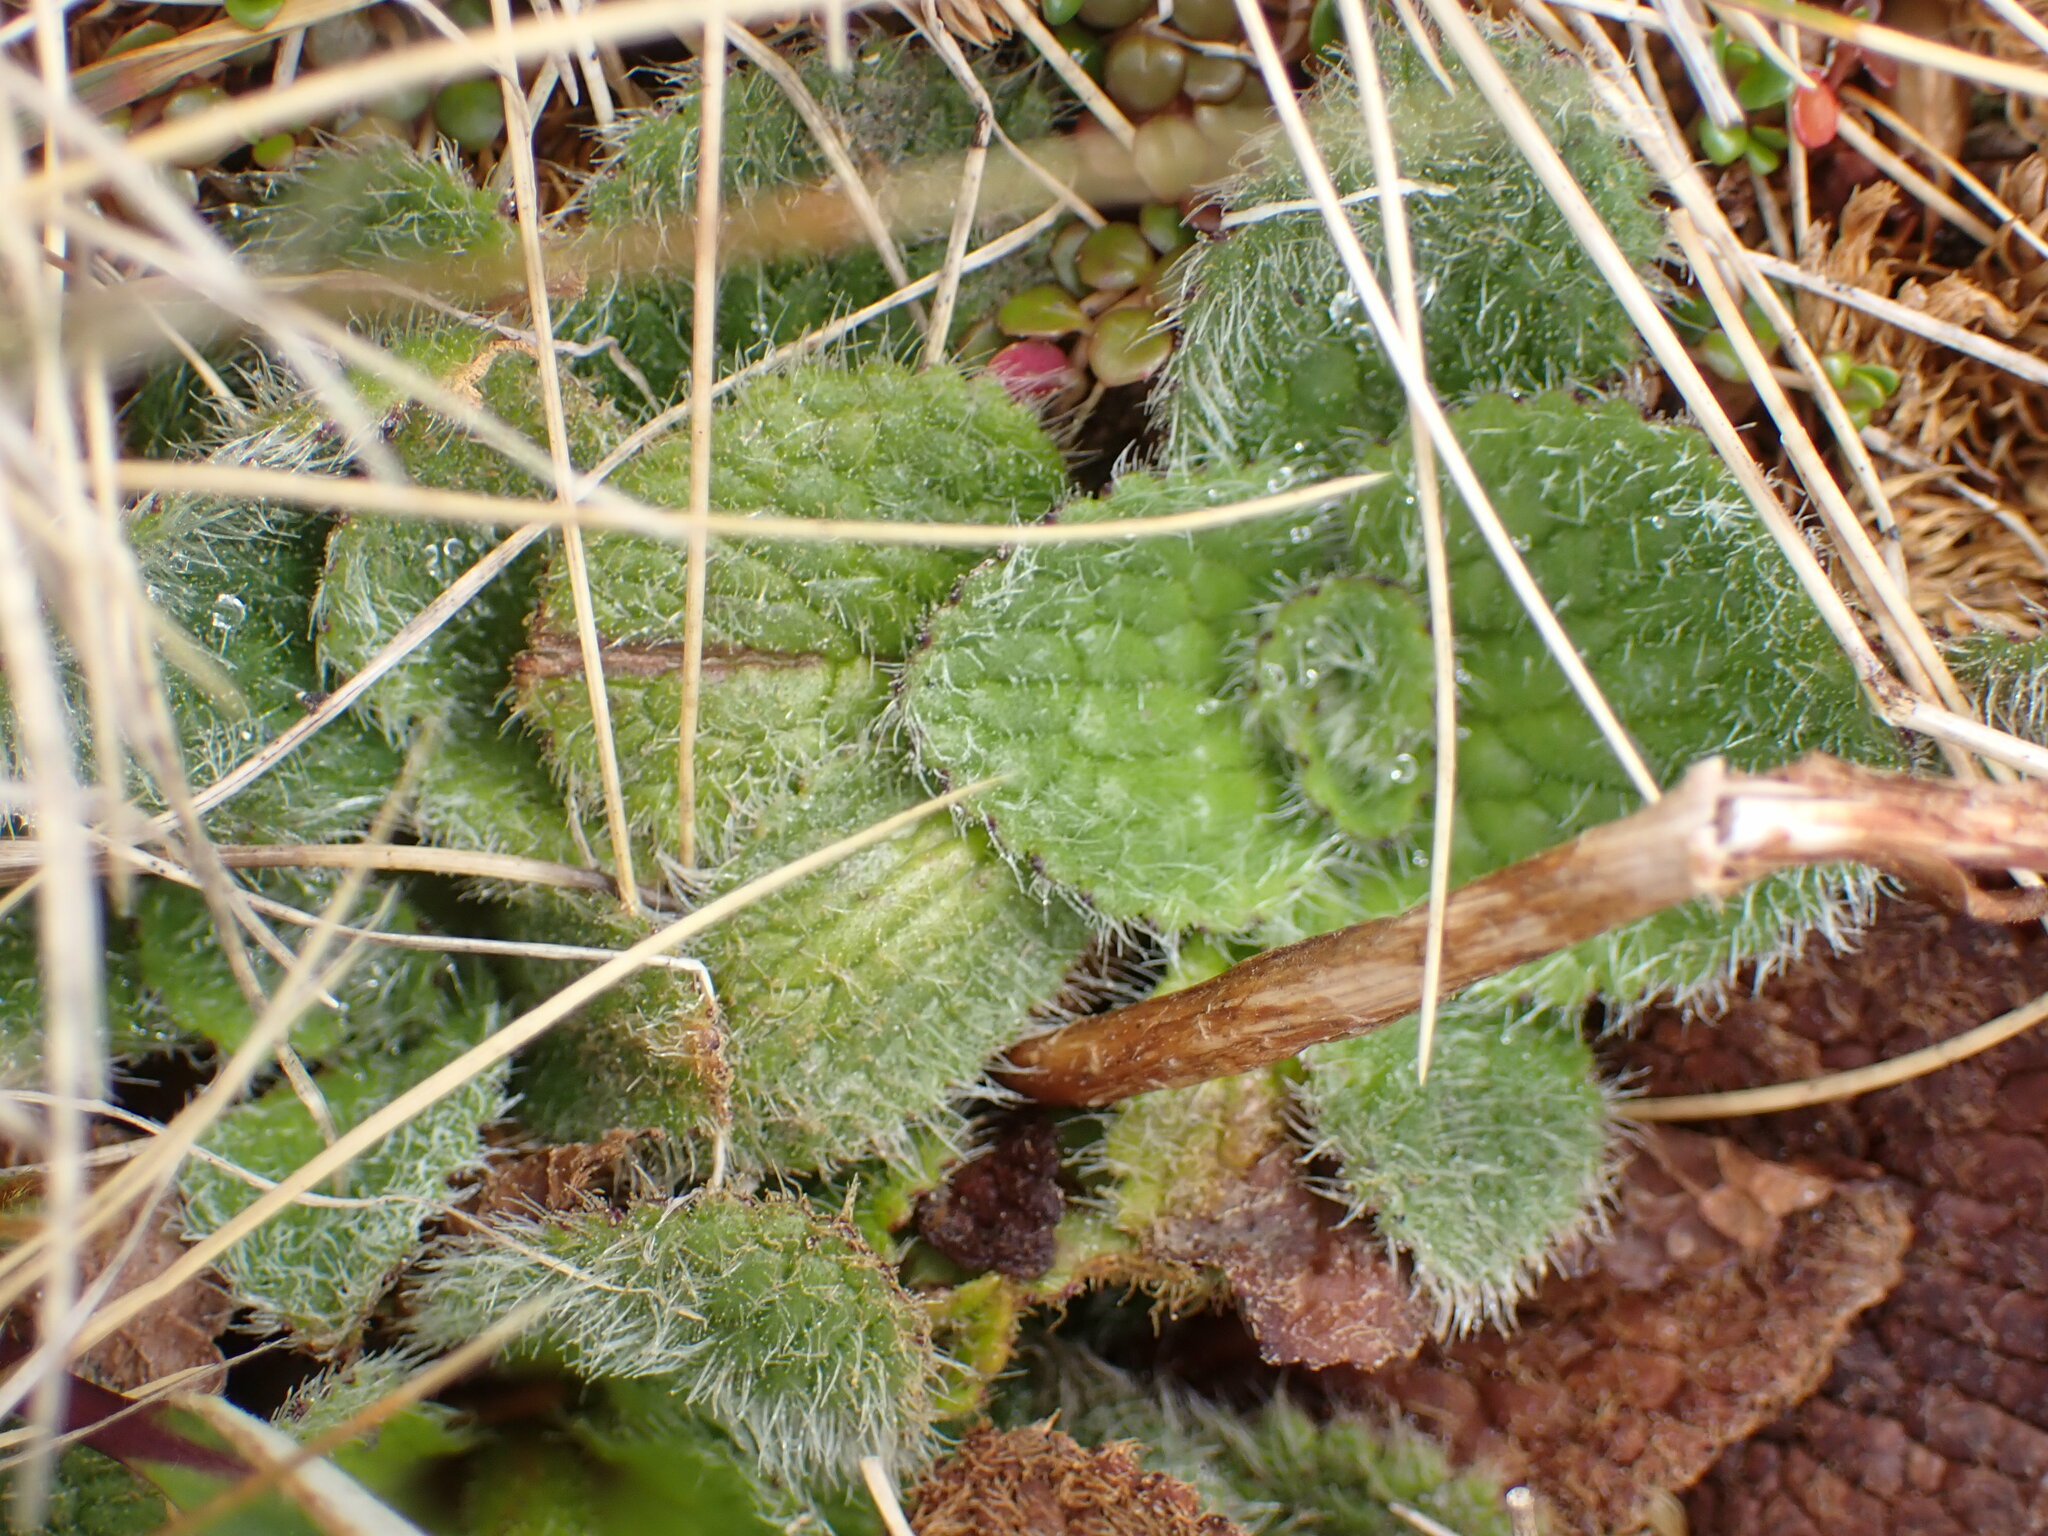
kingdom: Plantae
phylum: Tracheophyta
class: Magnoliopsida
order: Lamiales
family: Plantaginaceae
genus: Ourisia
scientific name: Ourisia sessilifolia
